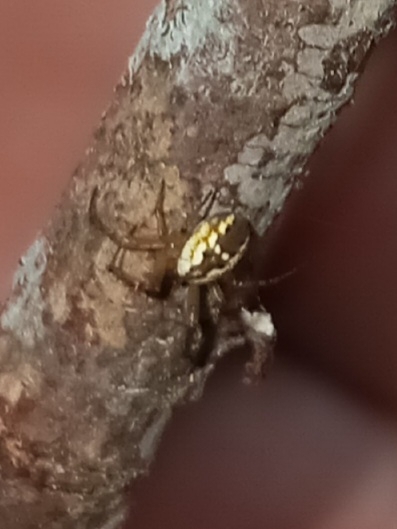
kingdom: Animalia
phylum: Arthropoda
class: Arachnida
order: Araneae
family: Araneidae
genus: Mangora
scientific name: Mangora placida
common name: Tuft-legged orbweaver
